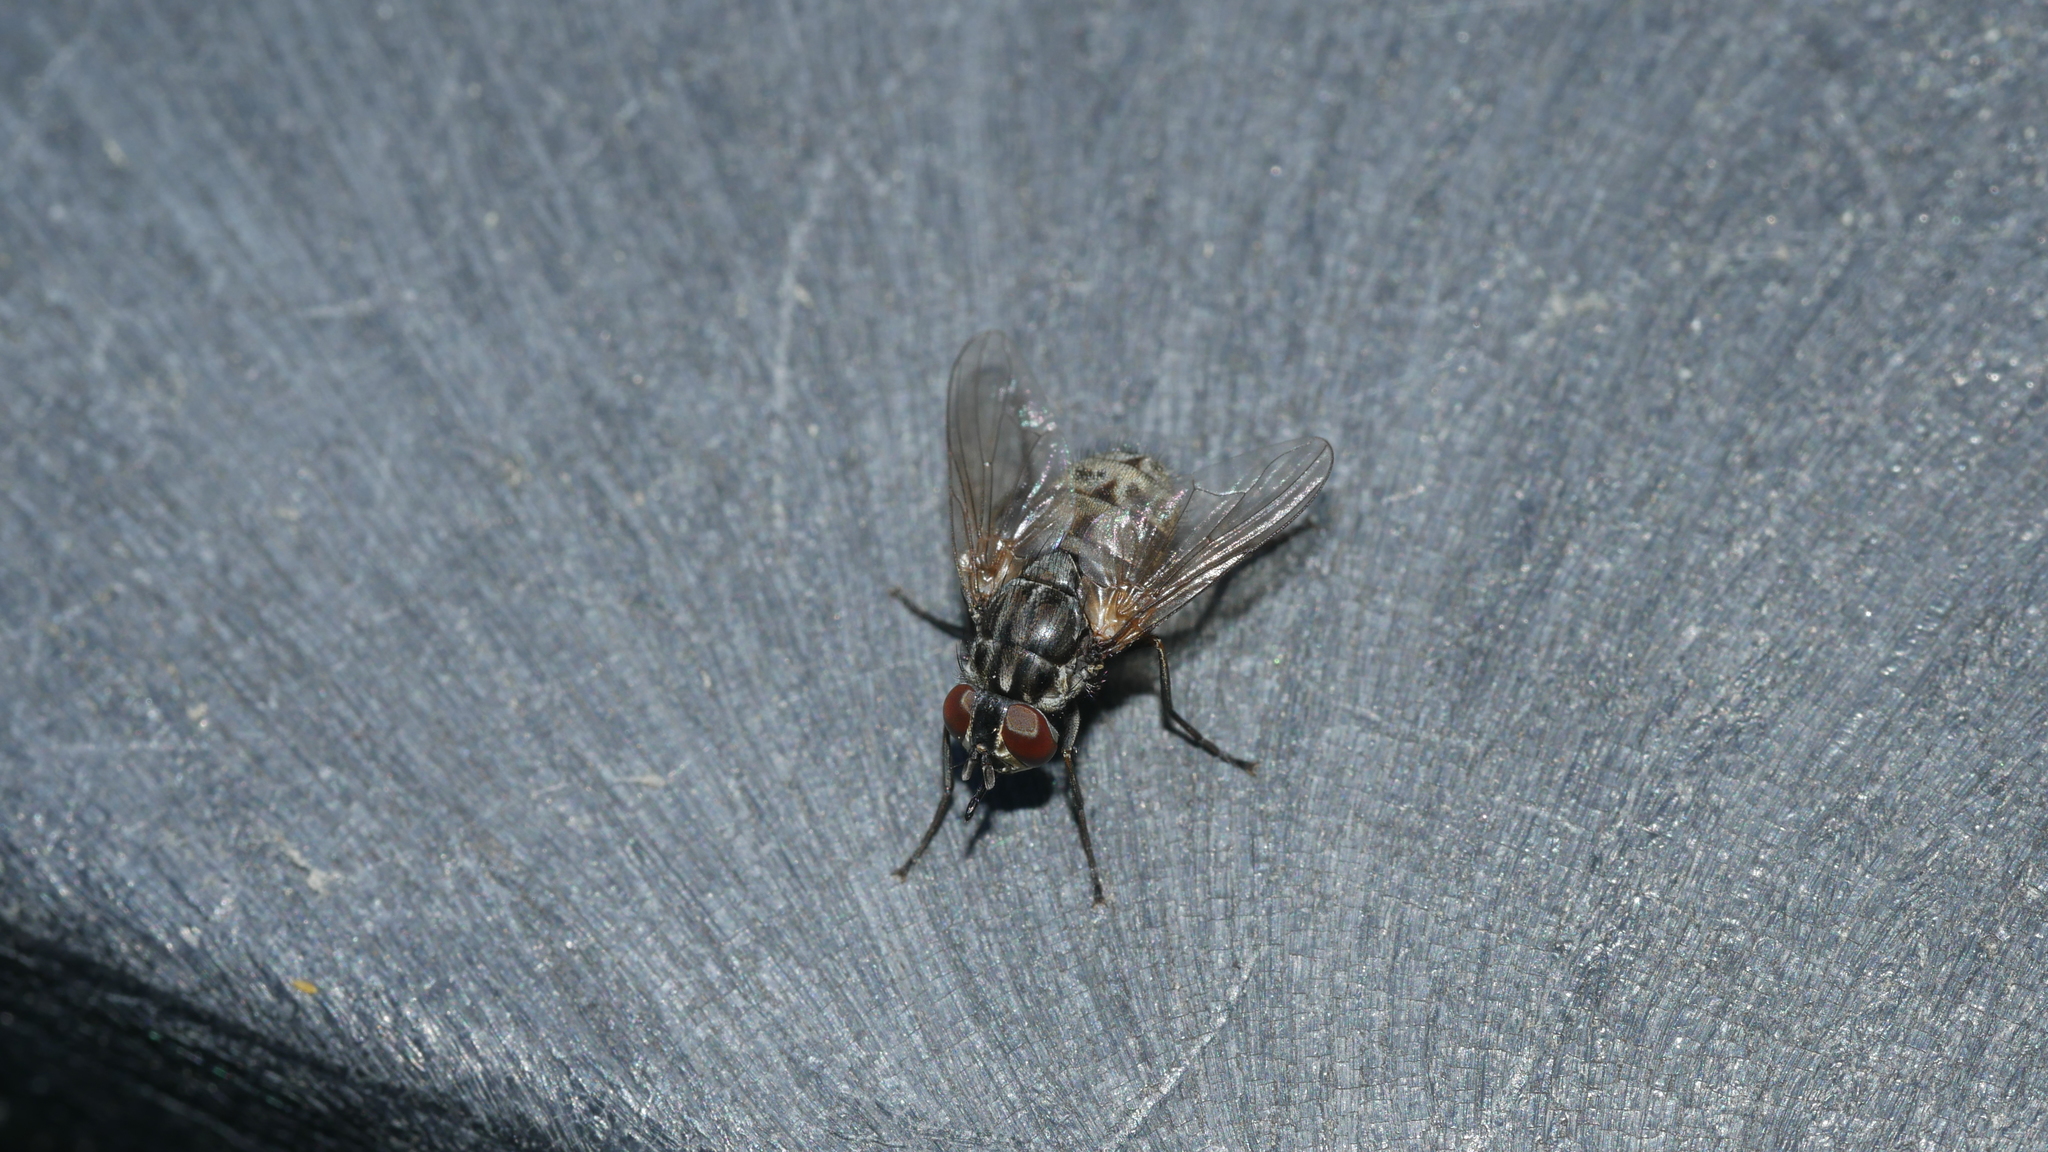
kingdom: Animalia
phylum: Arthropoda
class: Insecta
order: Diptera
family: Muscidae
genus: Stomoxys
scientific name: Stomoxys calcitrans
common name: Stable fly
